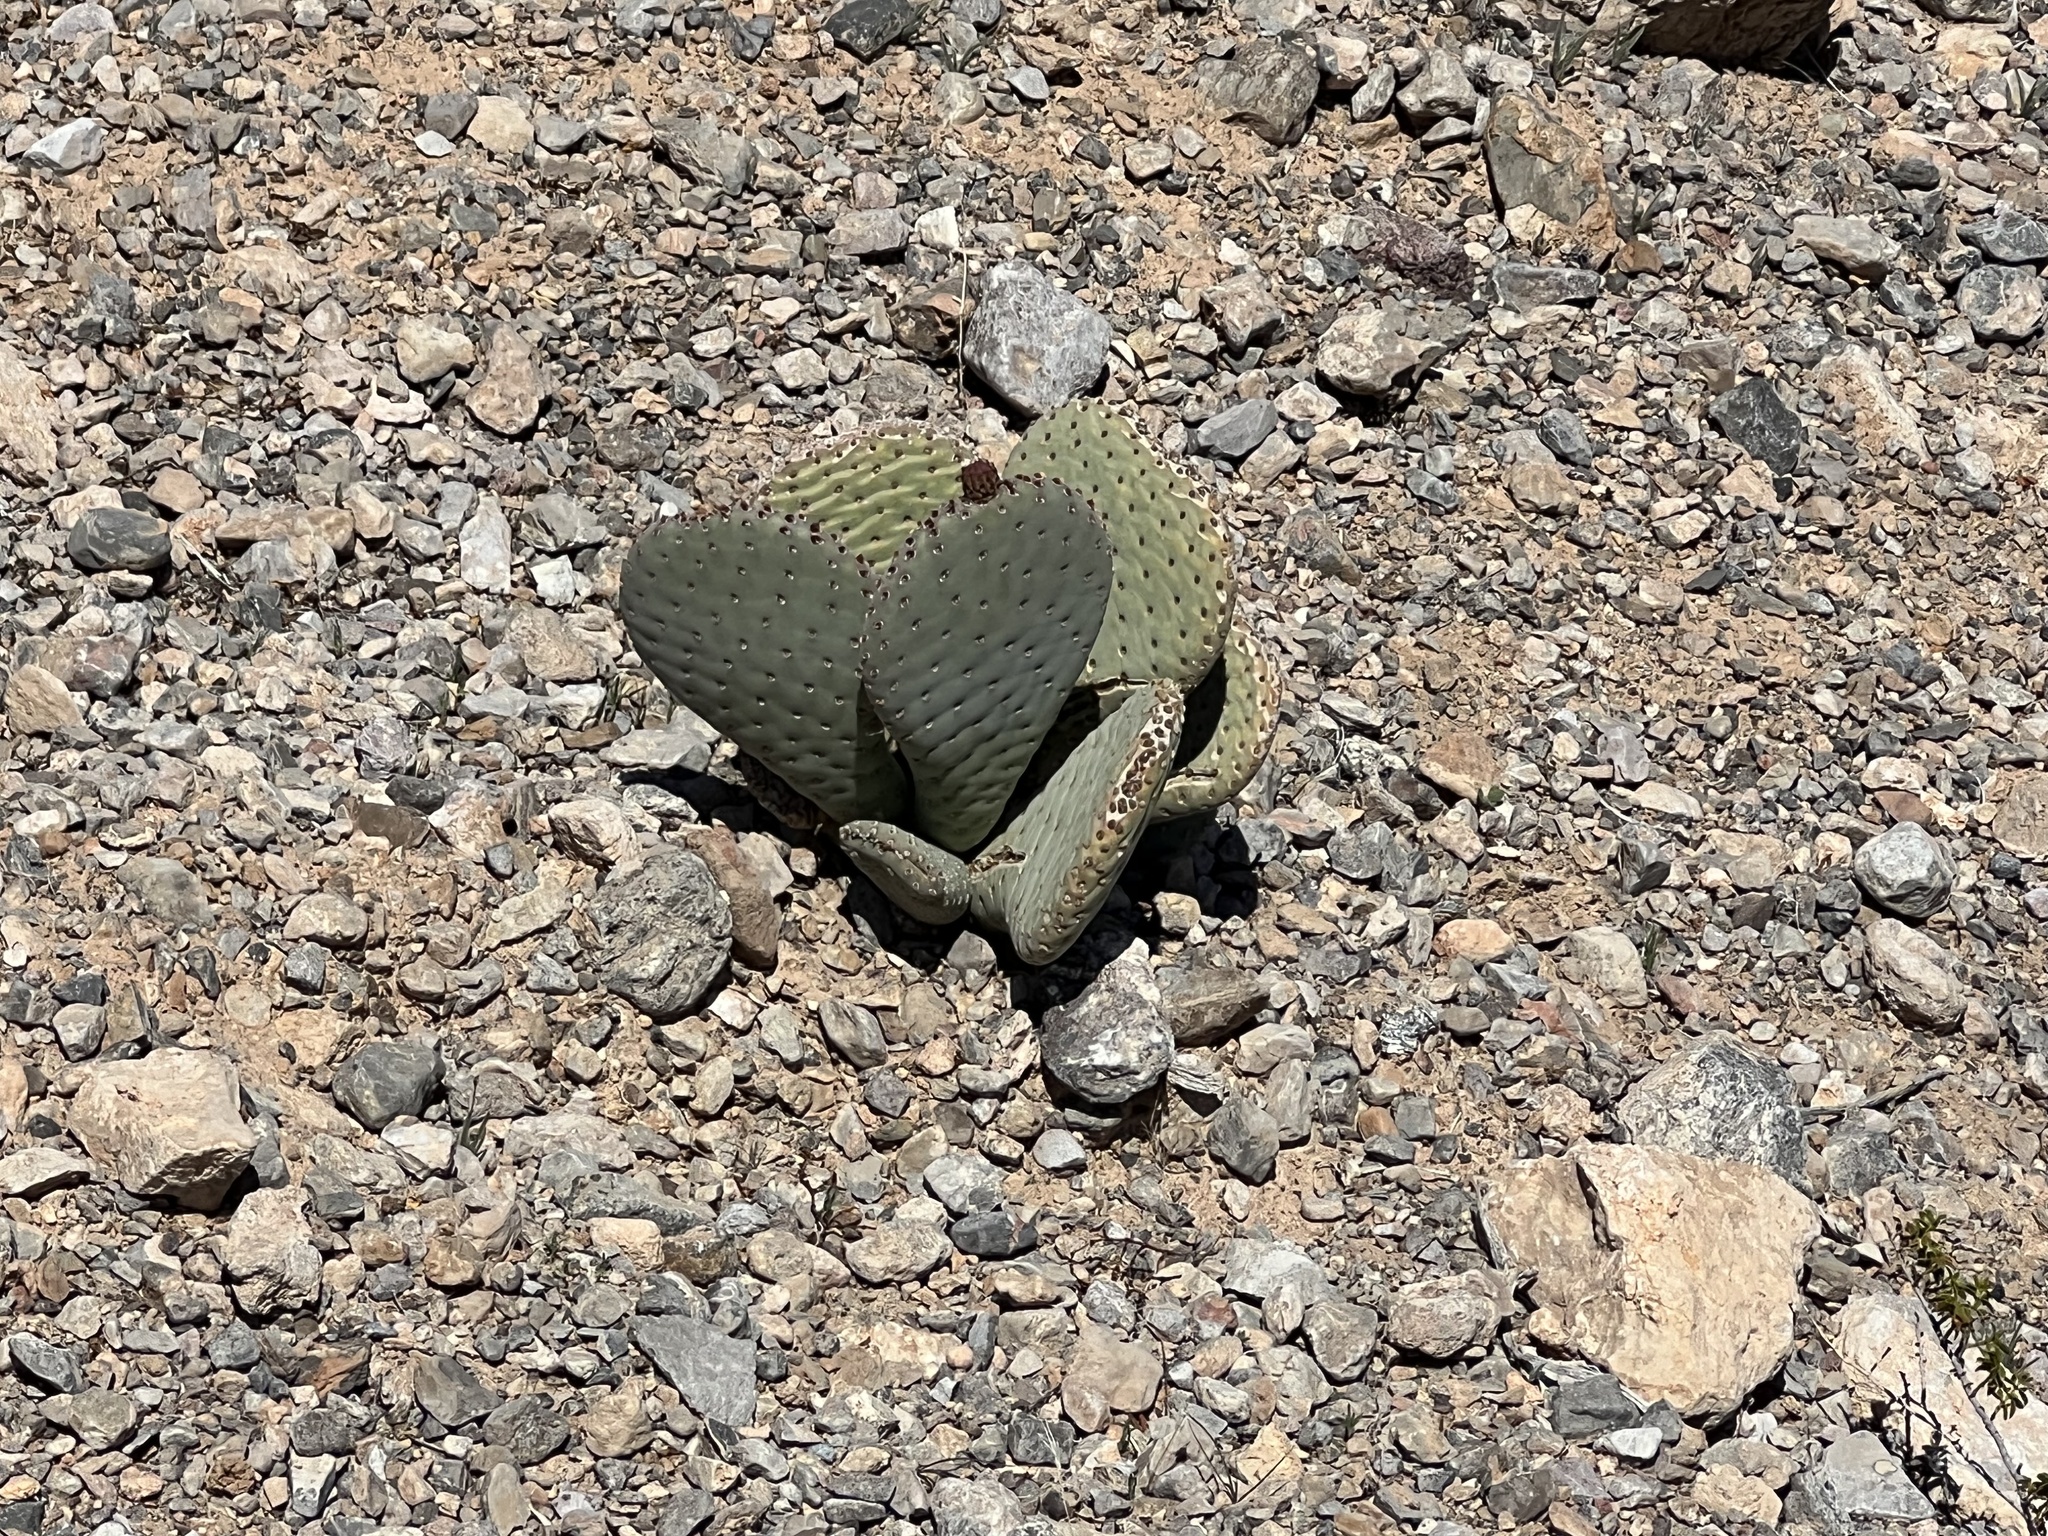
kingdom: Plantae
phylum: Tracheophyta
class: Magnoliopsida
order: Caryophyllales
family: Cactaceae
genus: Opuntia
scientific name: Opuntia basilaris
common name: Beavertail prickly-pear
